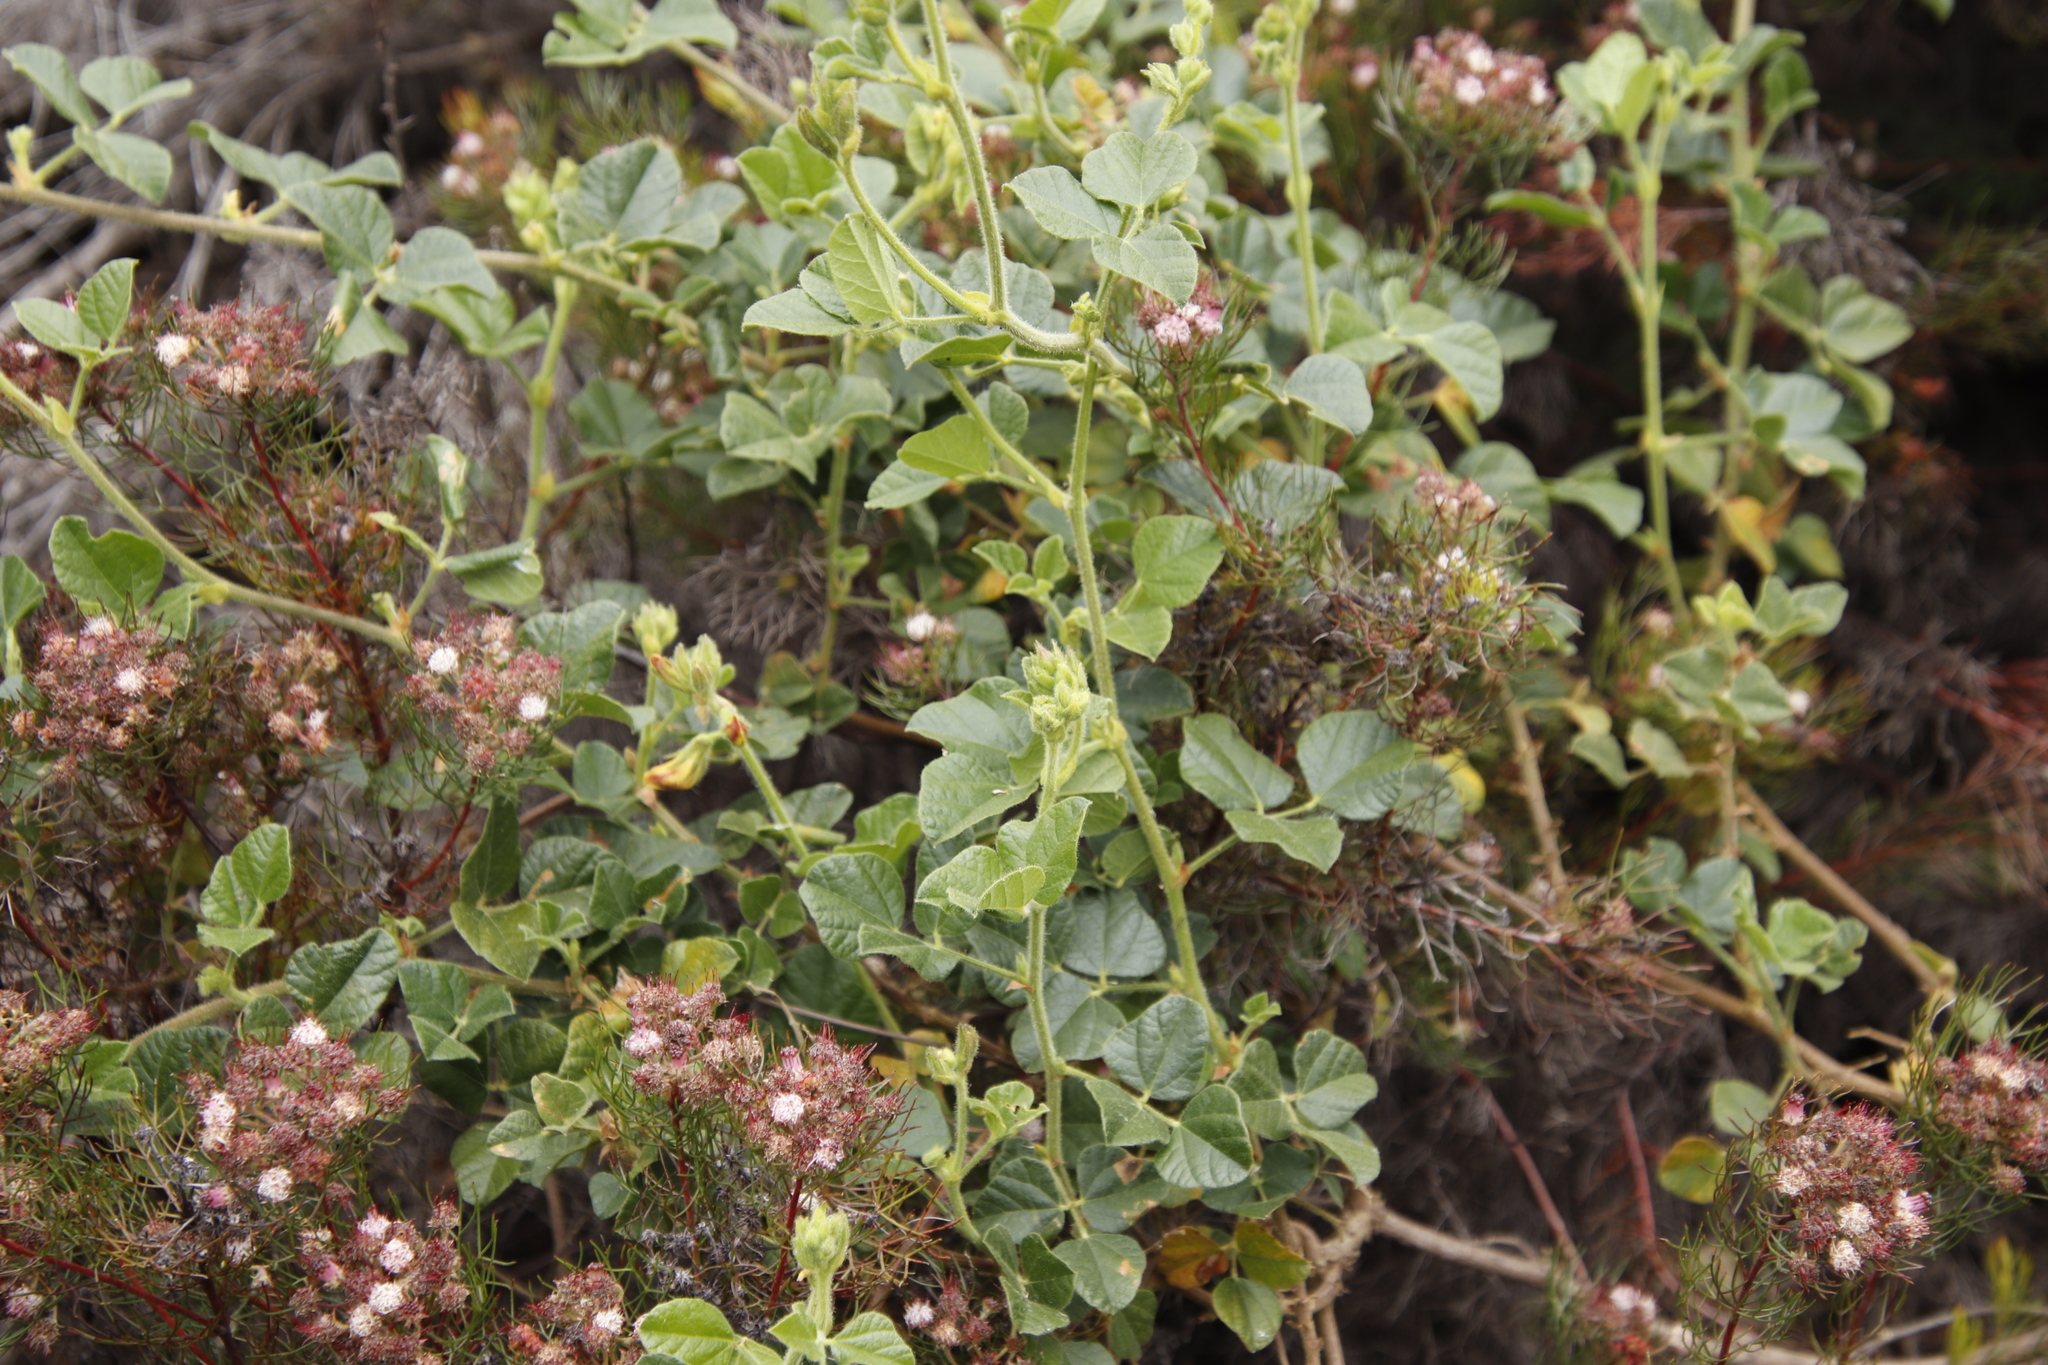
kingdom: Plantae
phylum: Tracheophyta
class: Magnoliopsida
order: Fabales
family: Fabaceae
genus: Bolusafra
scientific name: Bolusafra bituminosa
